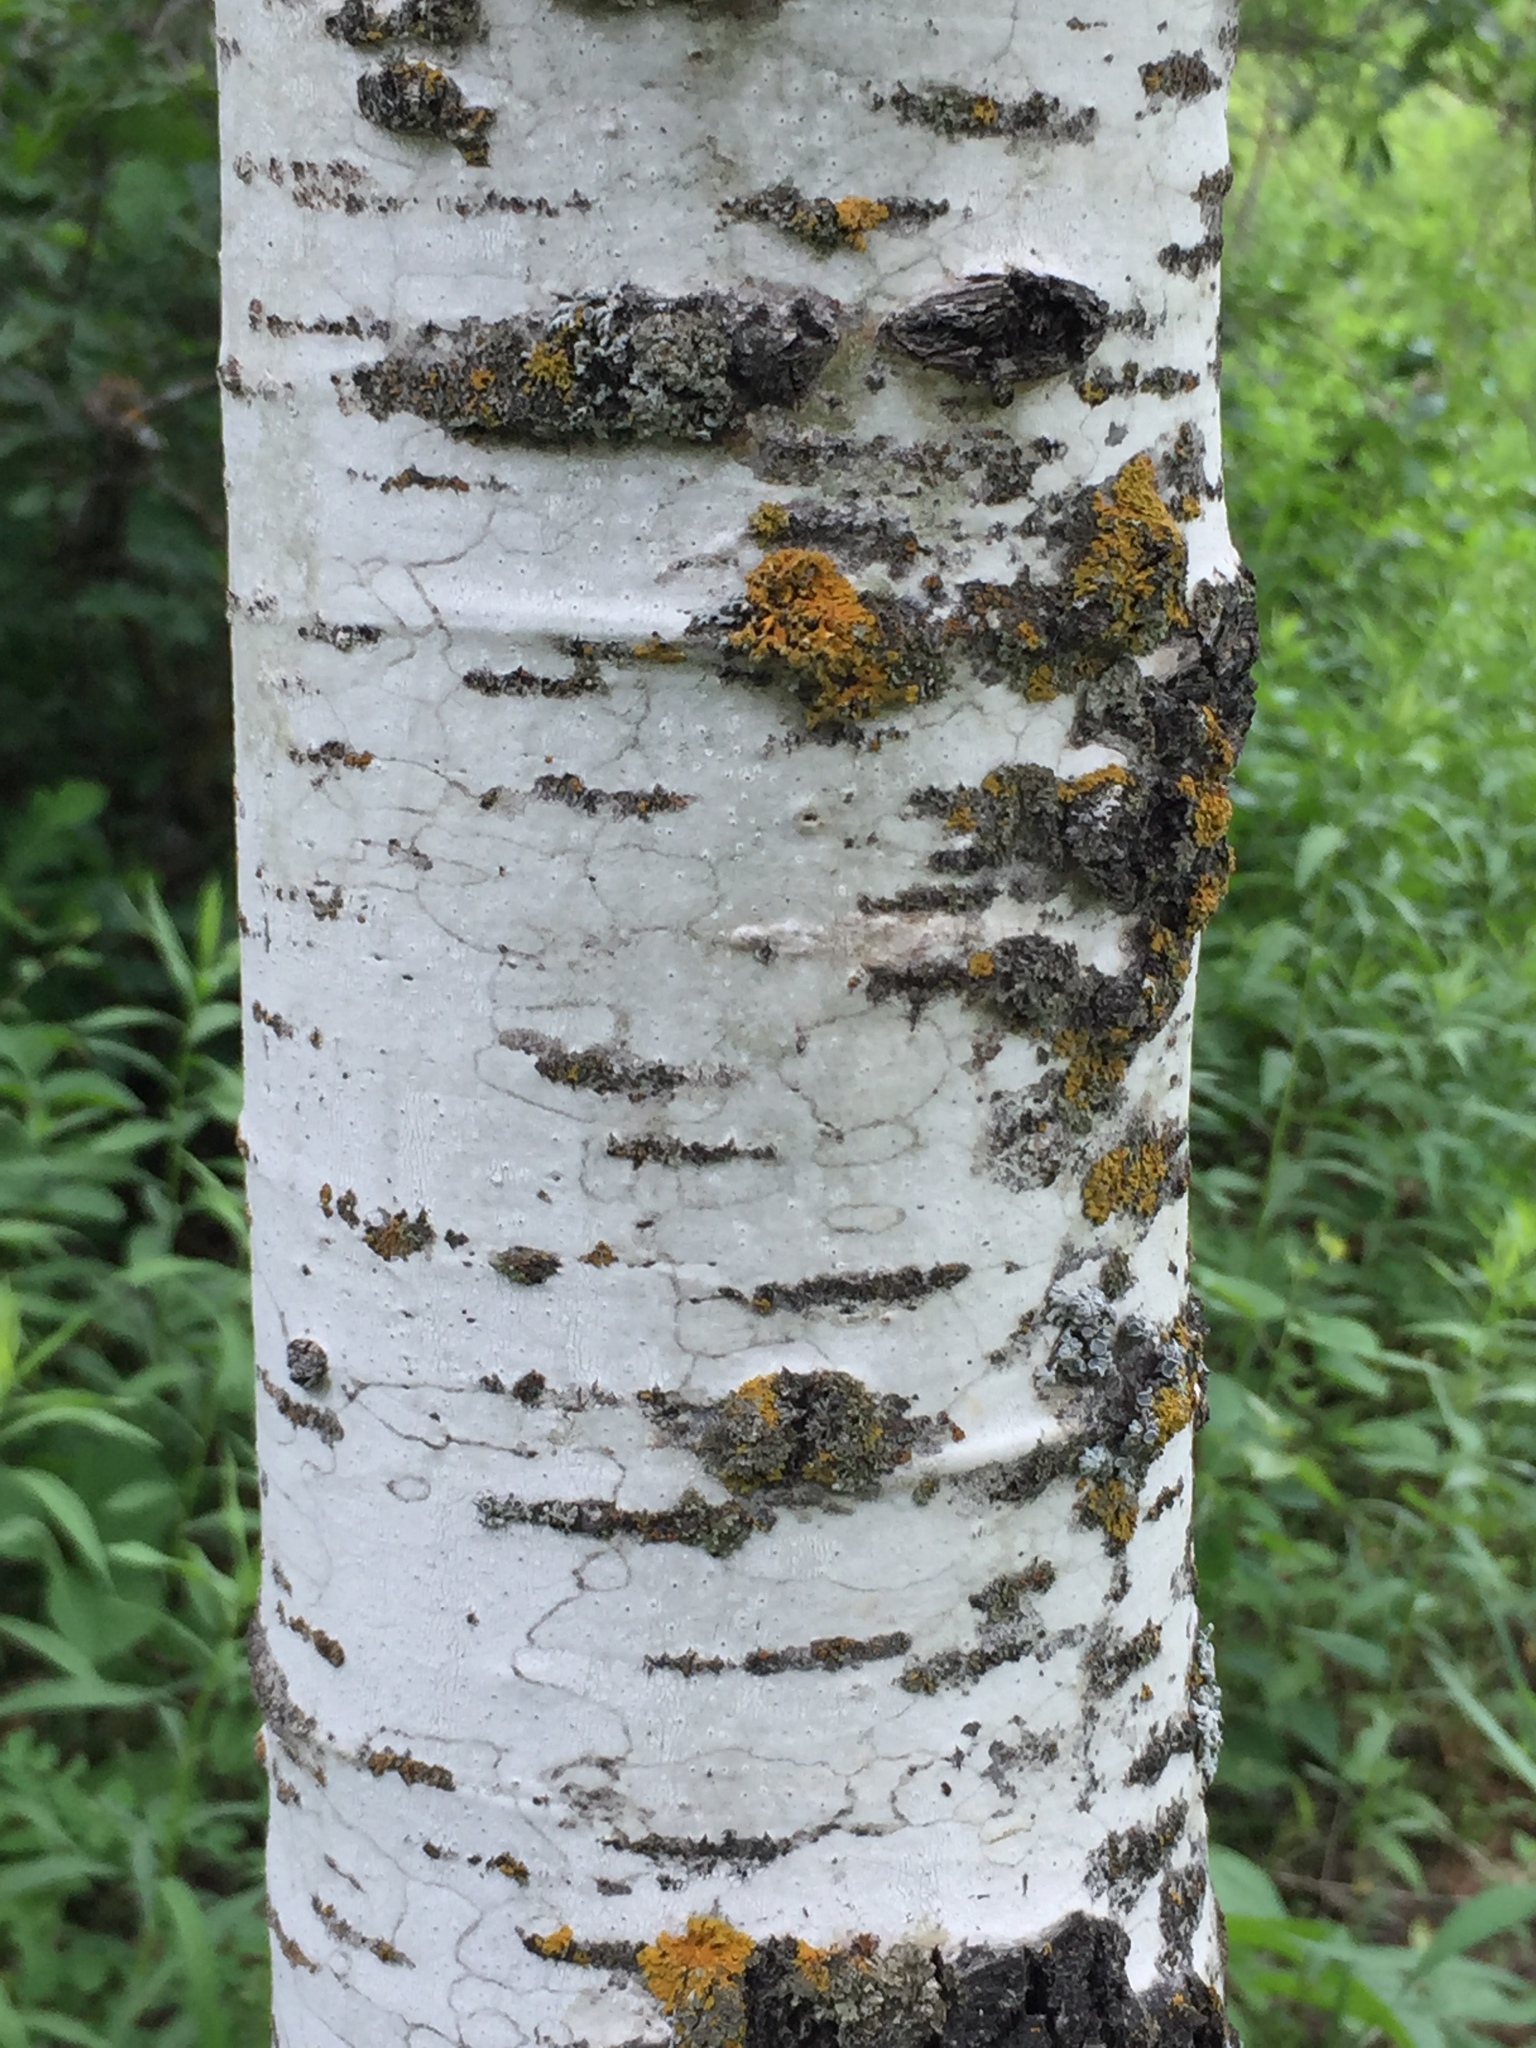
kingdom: Plantae
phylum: Tracheophyta
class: Magnoliopsida
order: Malpighiales
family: Salicaceae
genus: Populus
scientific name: Populus tremuloides
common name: Quaking aspen
